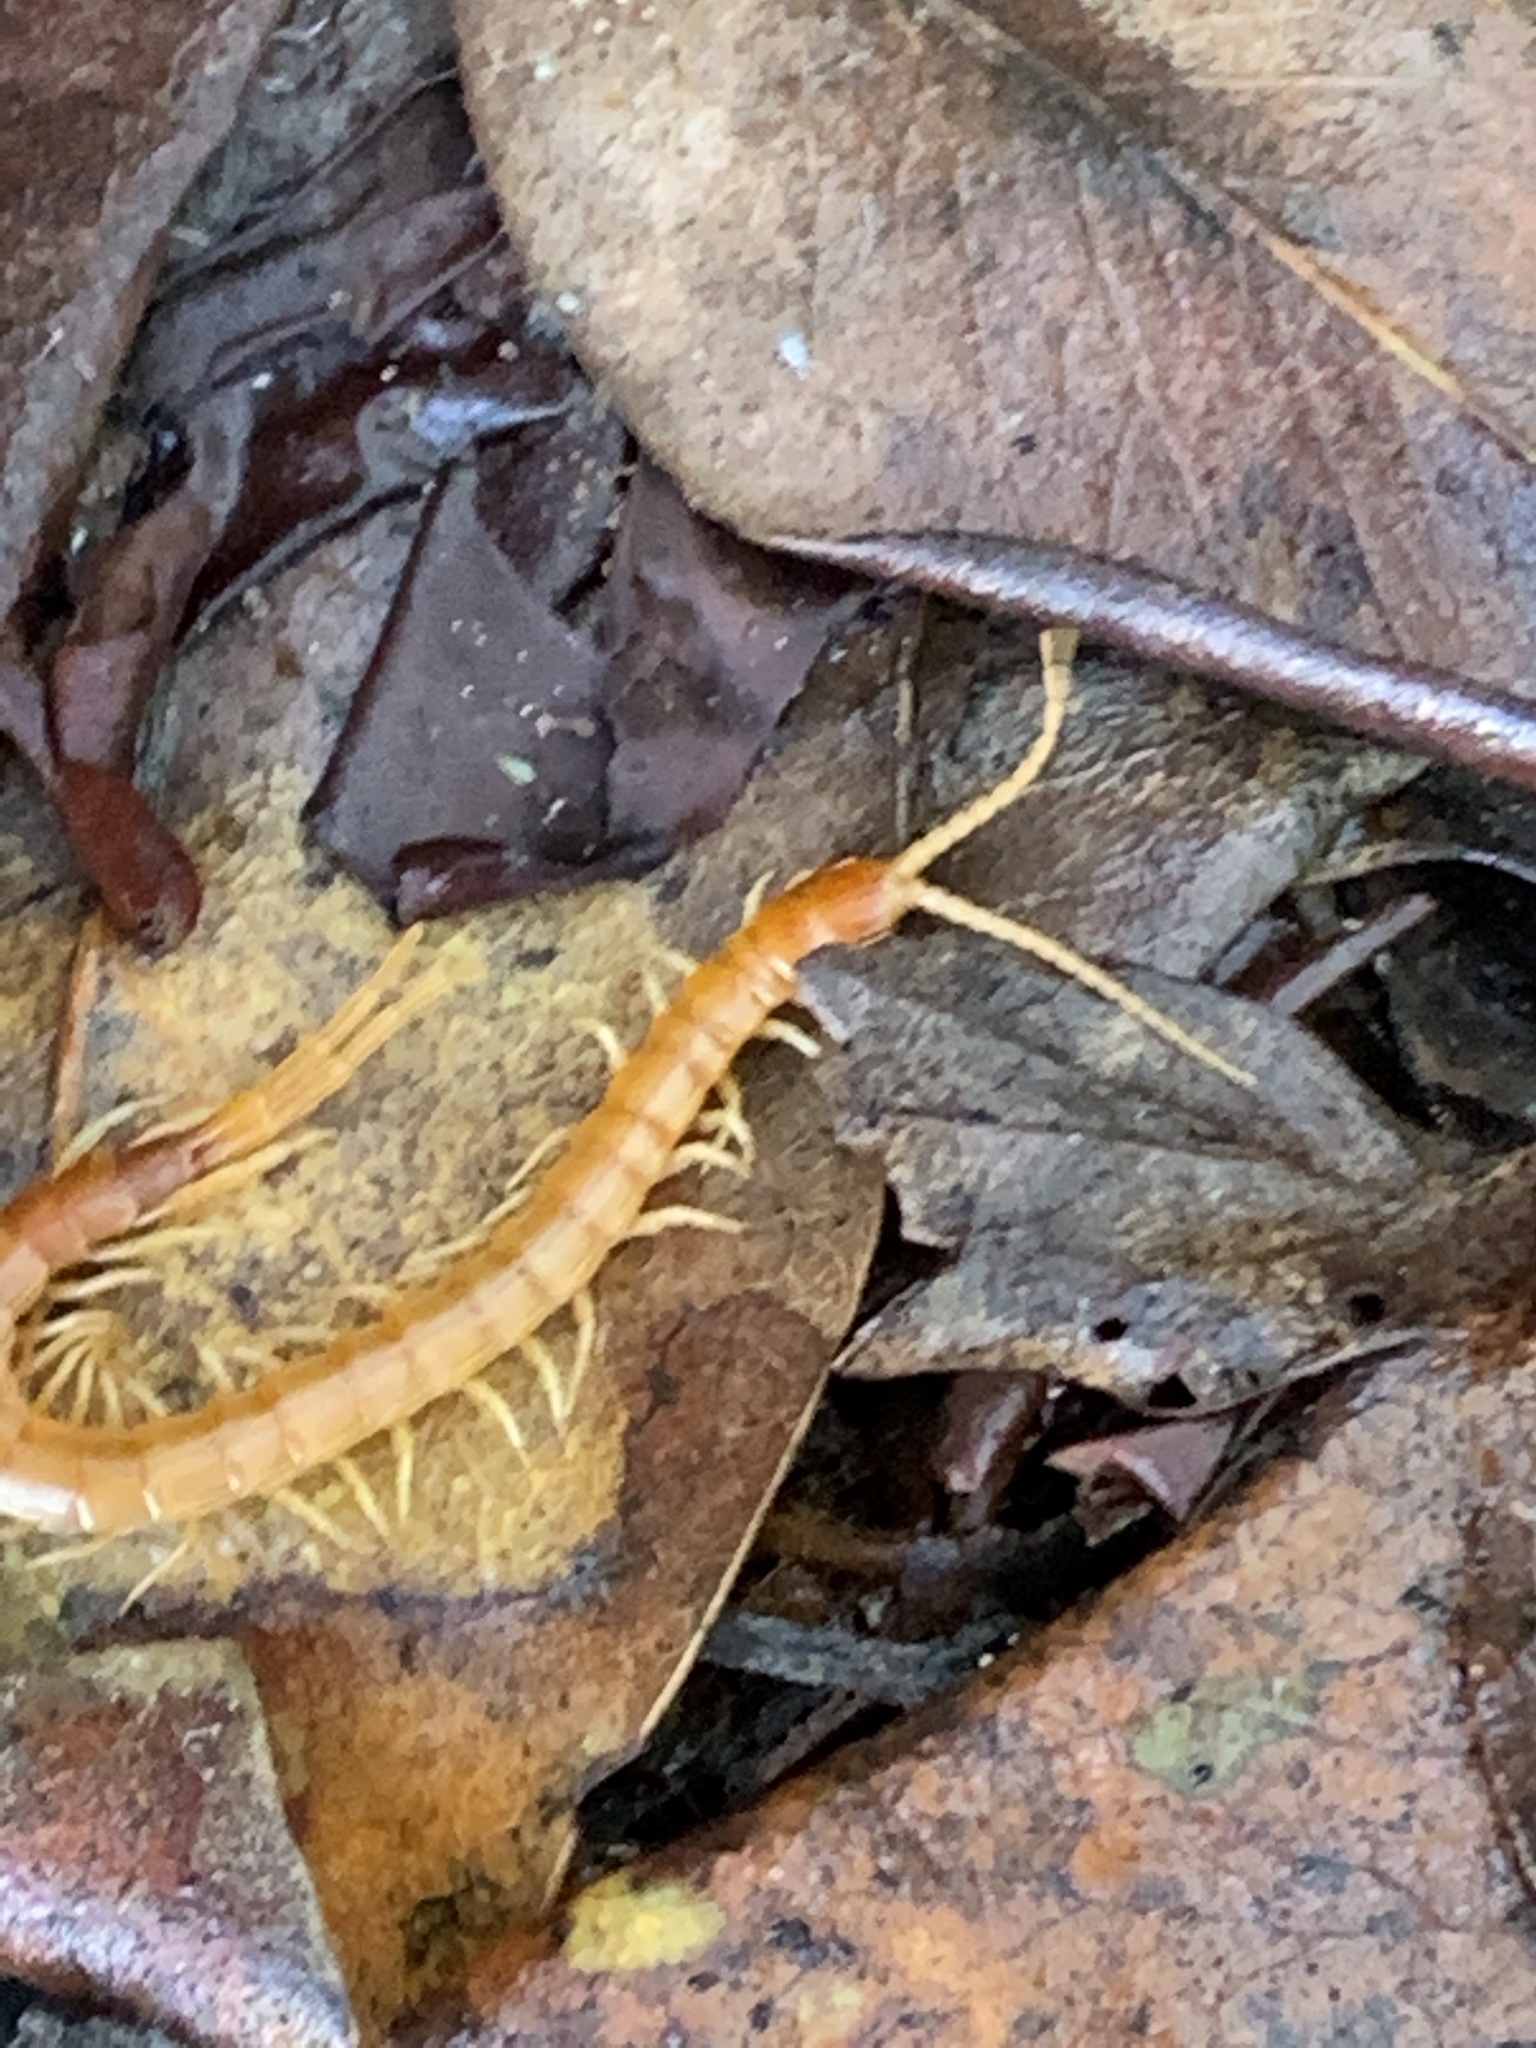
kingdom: Animalia
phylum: Arthropoda
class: Chilopoda
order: Scolopendromorpha
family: Scolopocryptopidae
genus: Scolopocryptops
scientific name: Scolopocryptops gracilis
